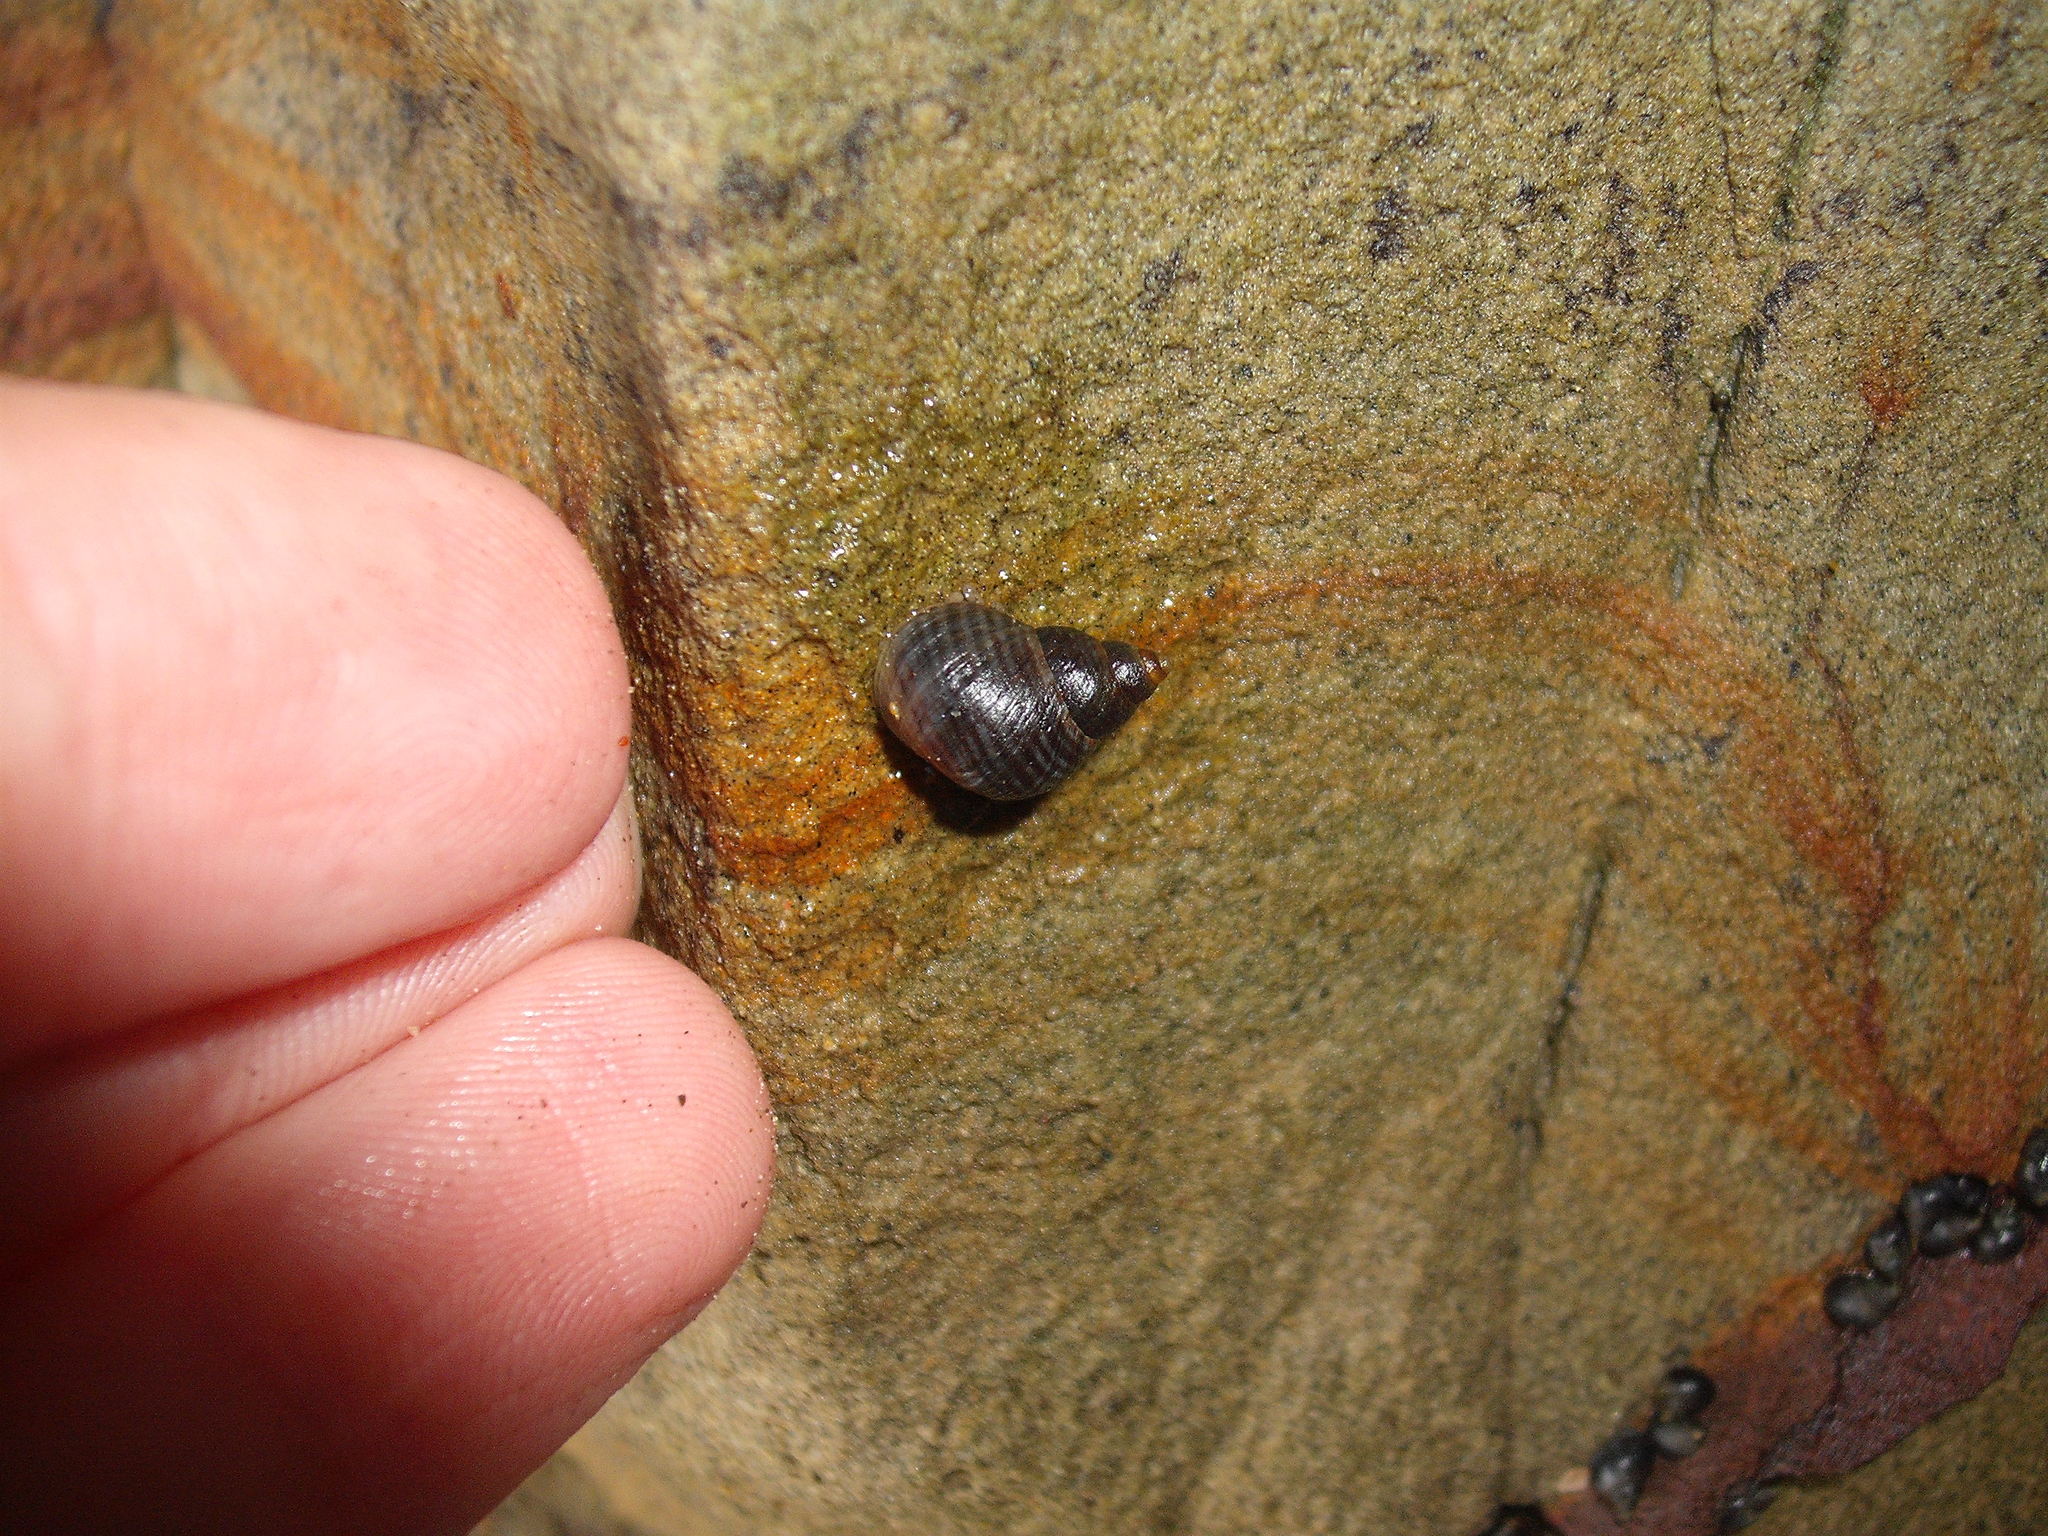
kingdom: Animalia
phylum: Mollusca
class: Gastropoda
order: Littorinimorpha
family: Littorinidae
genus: Austrolittorina
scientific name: Austrolittorina cincta
